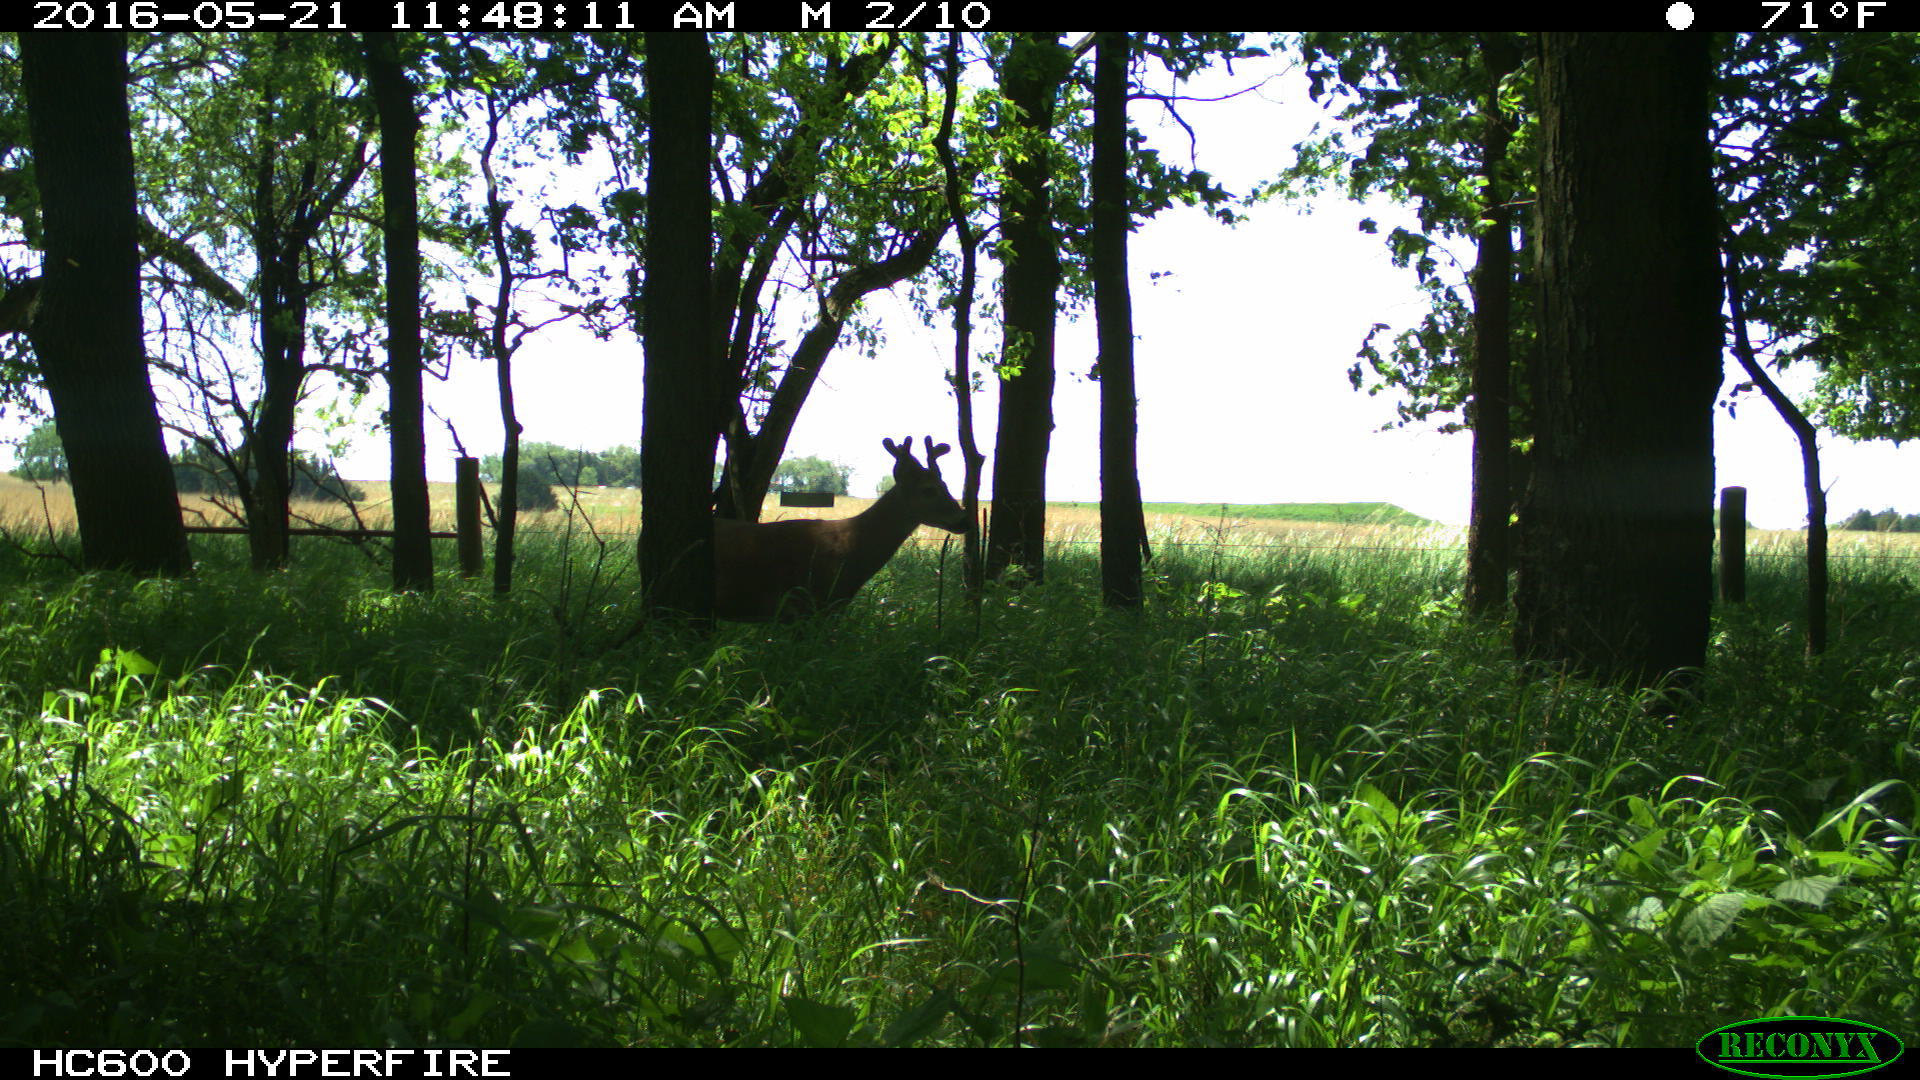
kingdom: Animalia
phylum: Chordata
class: Mammalia
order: Artiodactyla
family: Cervidae
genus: Odocoileus
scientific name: Odocoileus virginianus
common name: White-tailed deer
